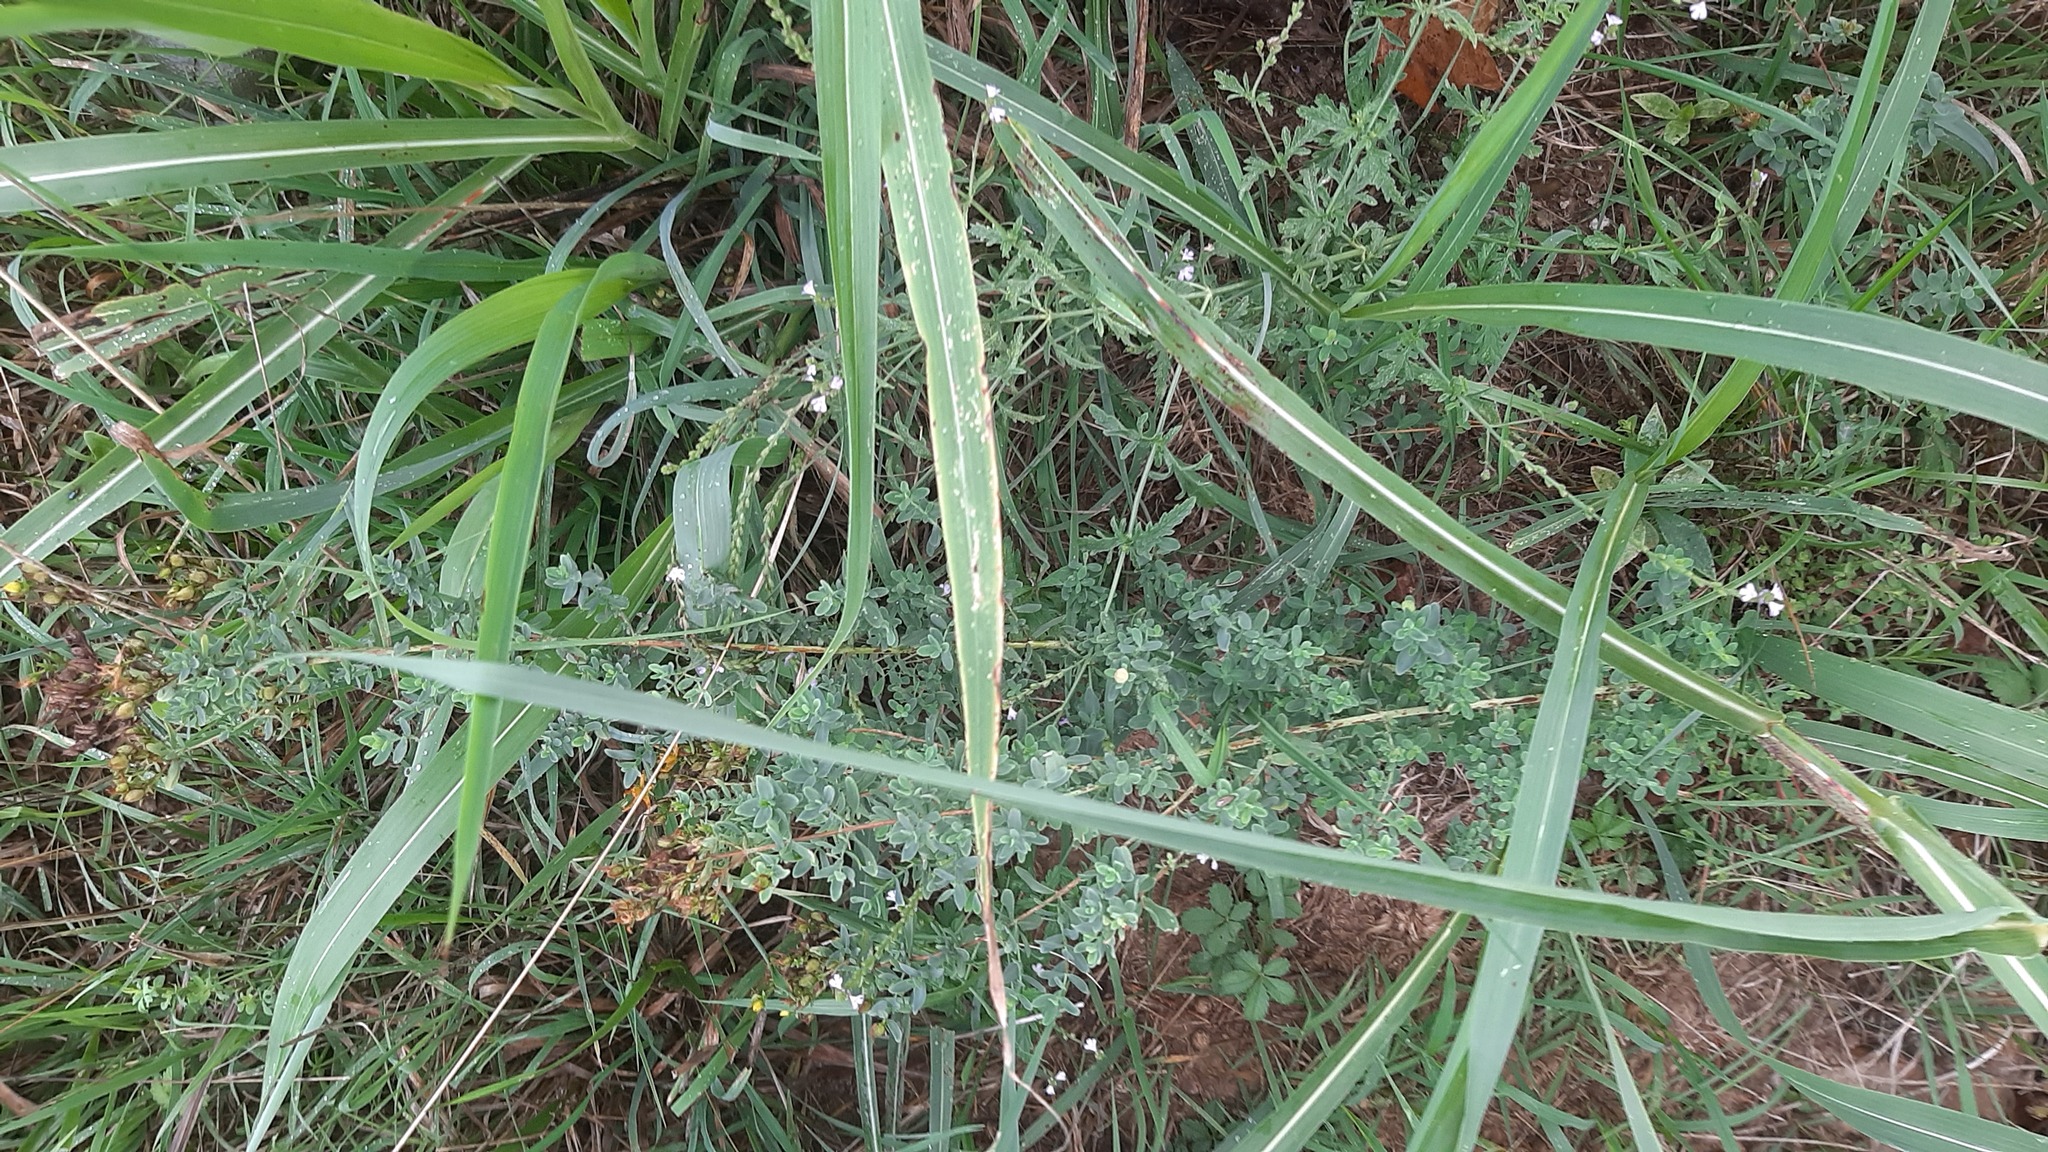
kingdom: Plantae
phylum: Tracheophyta
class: Magnoliopsida
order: Lamiales
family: Verbenaceae
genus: Verbena
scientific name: Verbena officinalis
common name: Vervain
